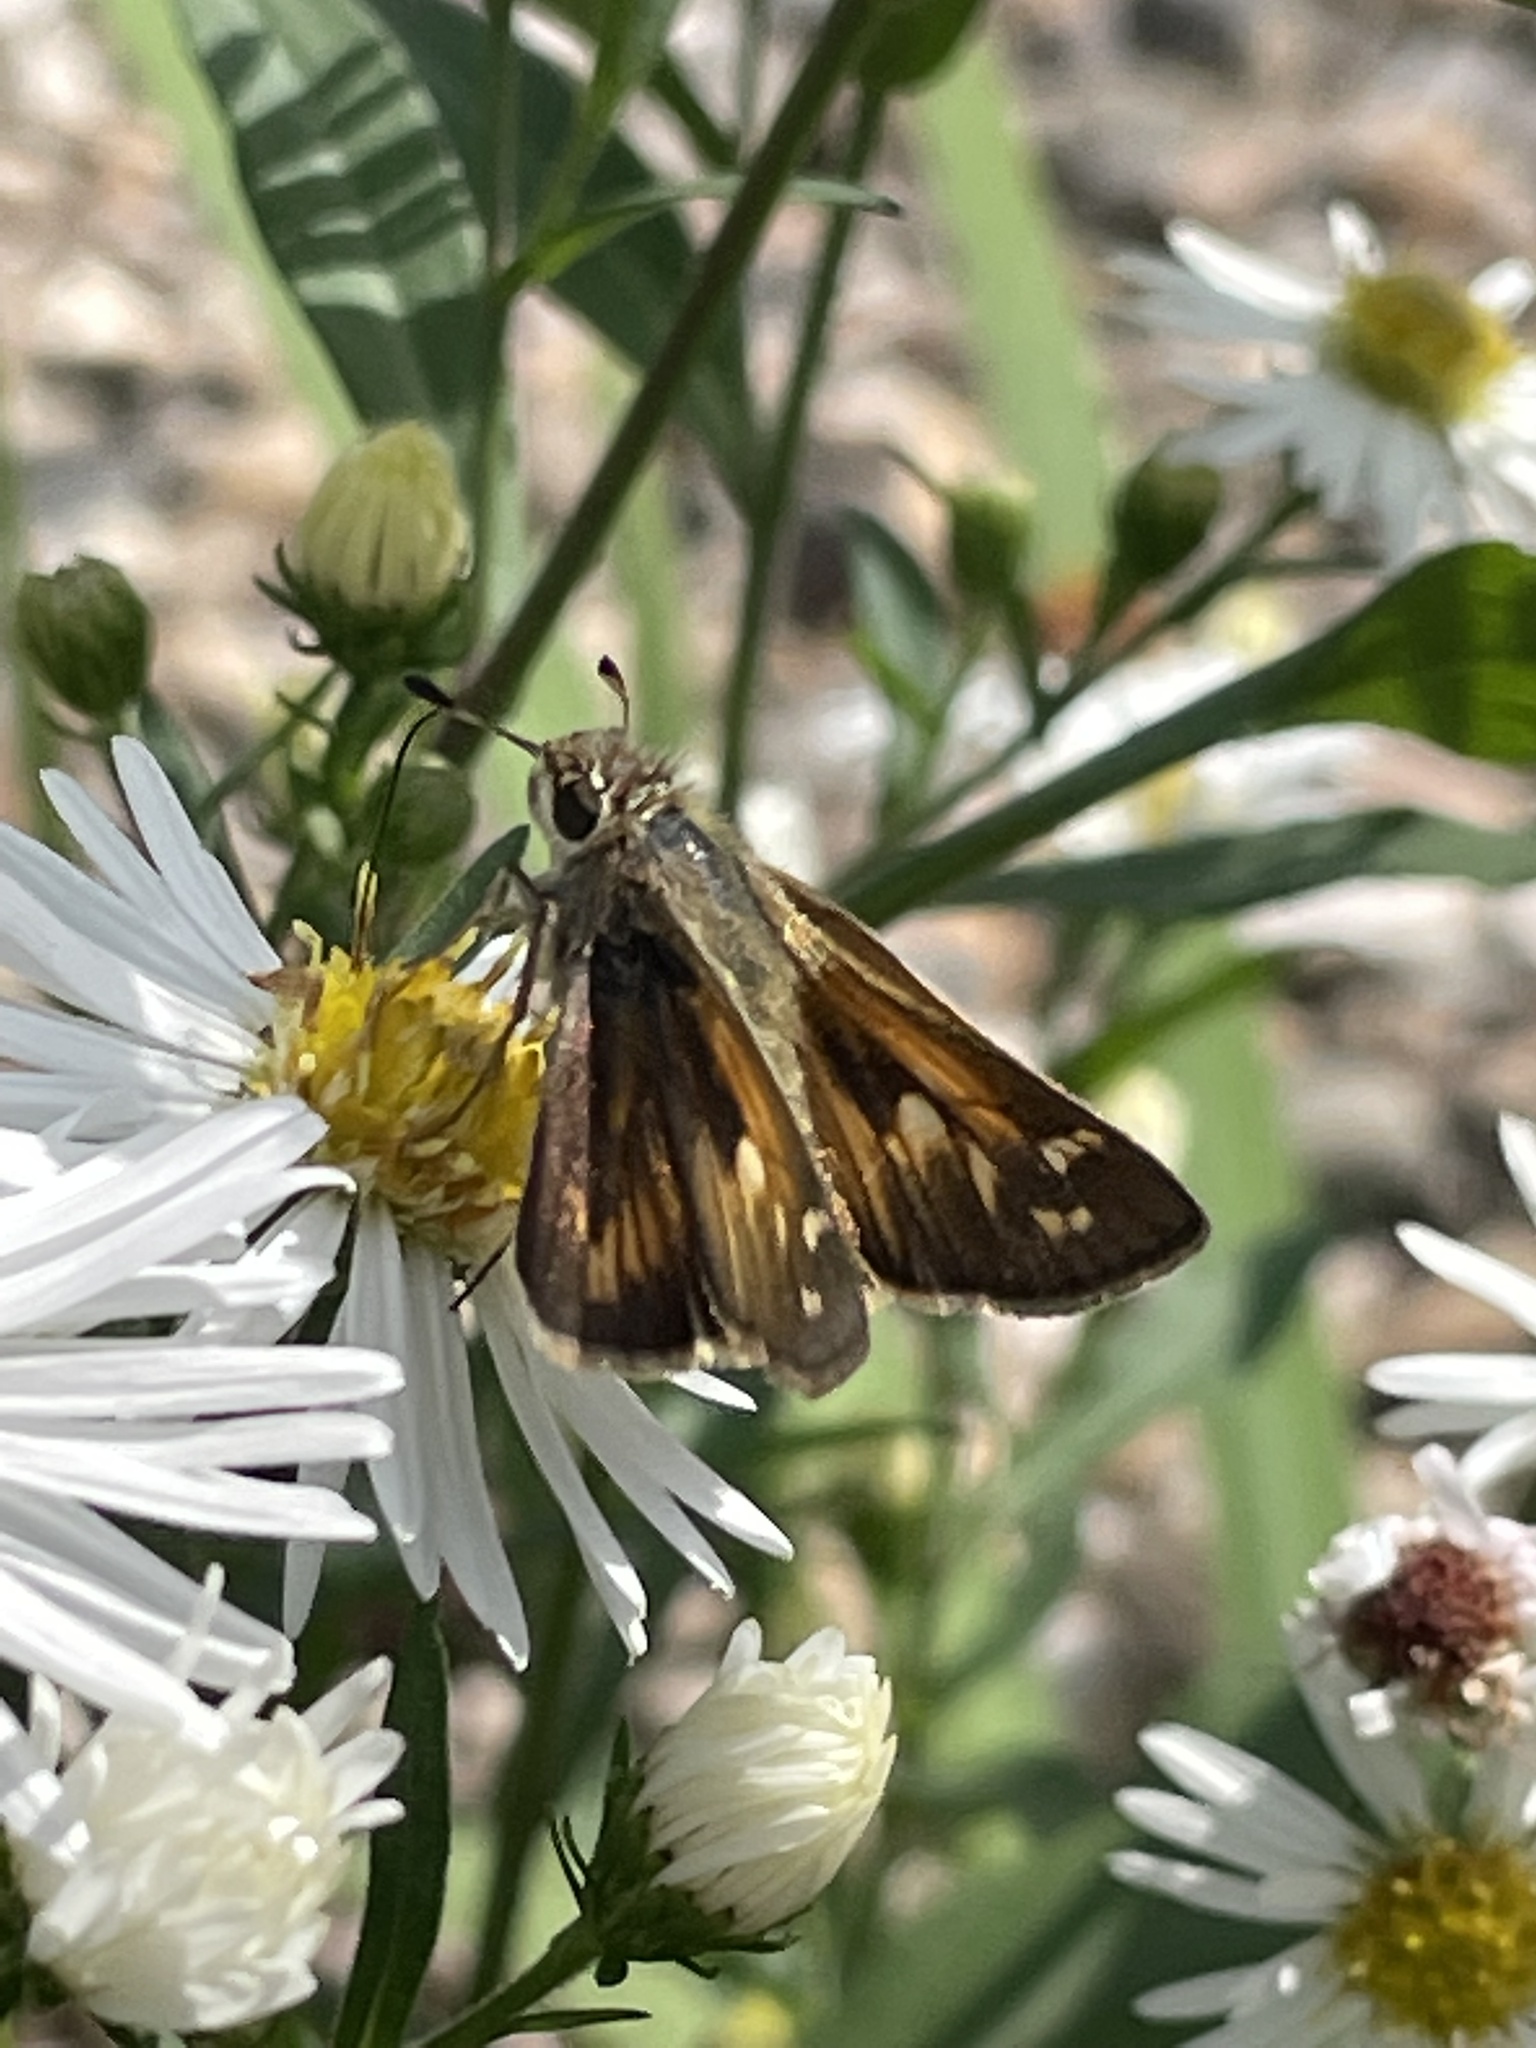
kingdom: Animalia
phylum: Arthropoda
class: Insecta
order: Lepidoptera
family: Hesperiidae
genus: Atalopedes
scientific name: Atalopedes
